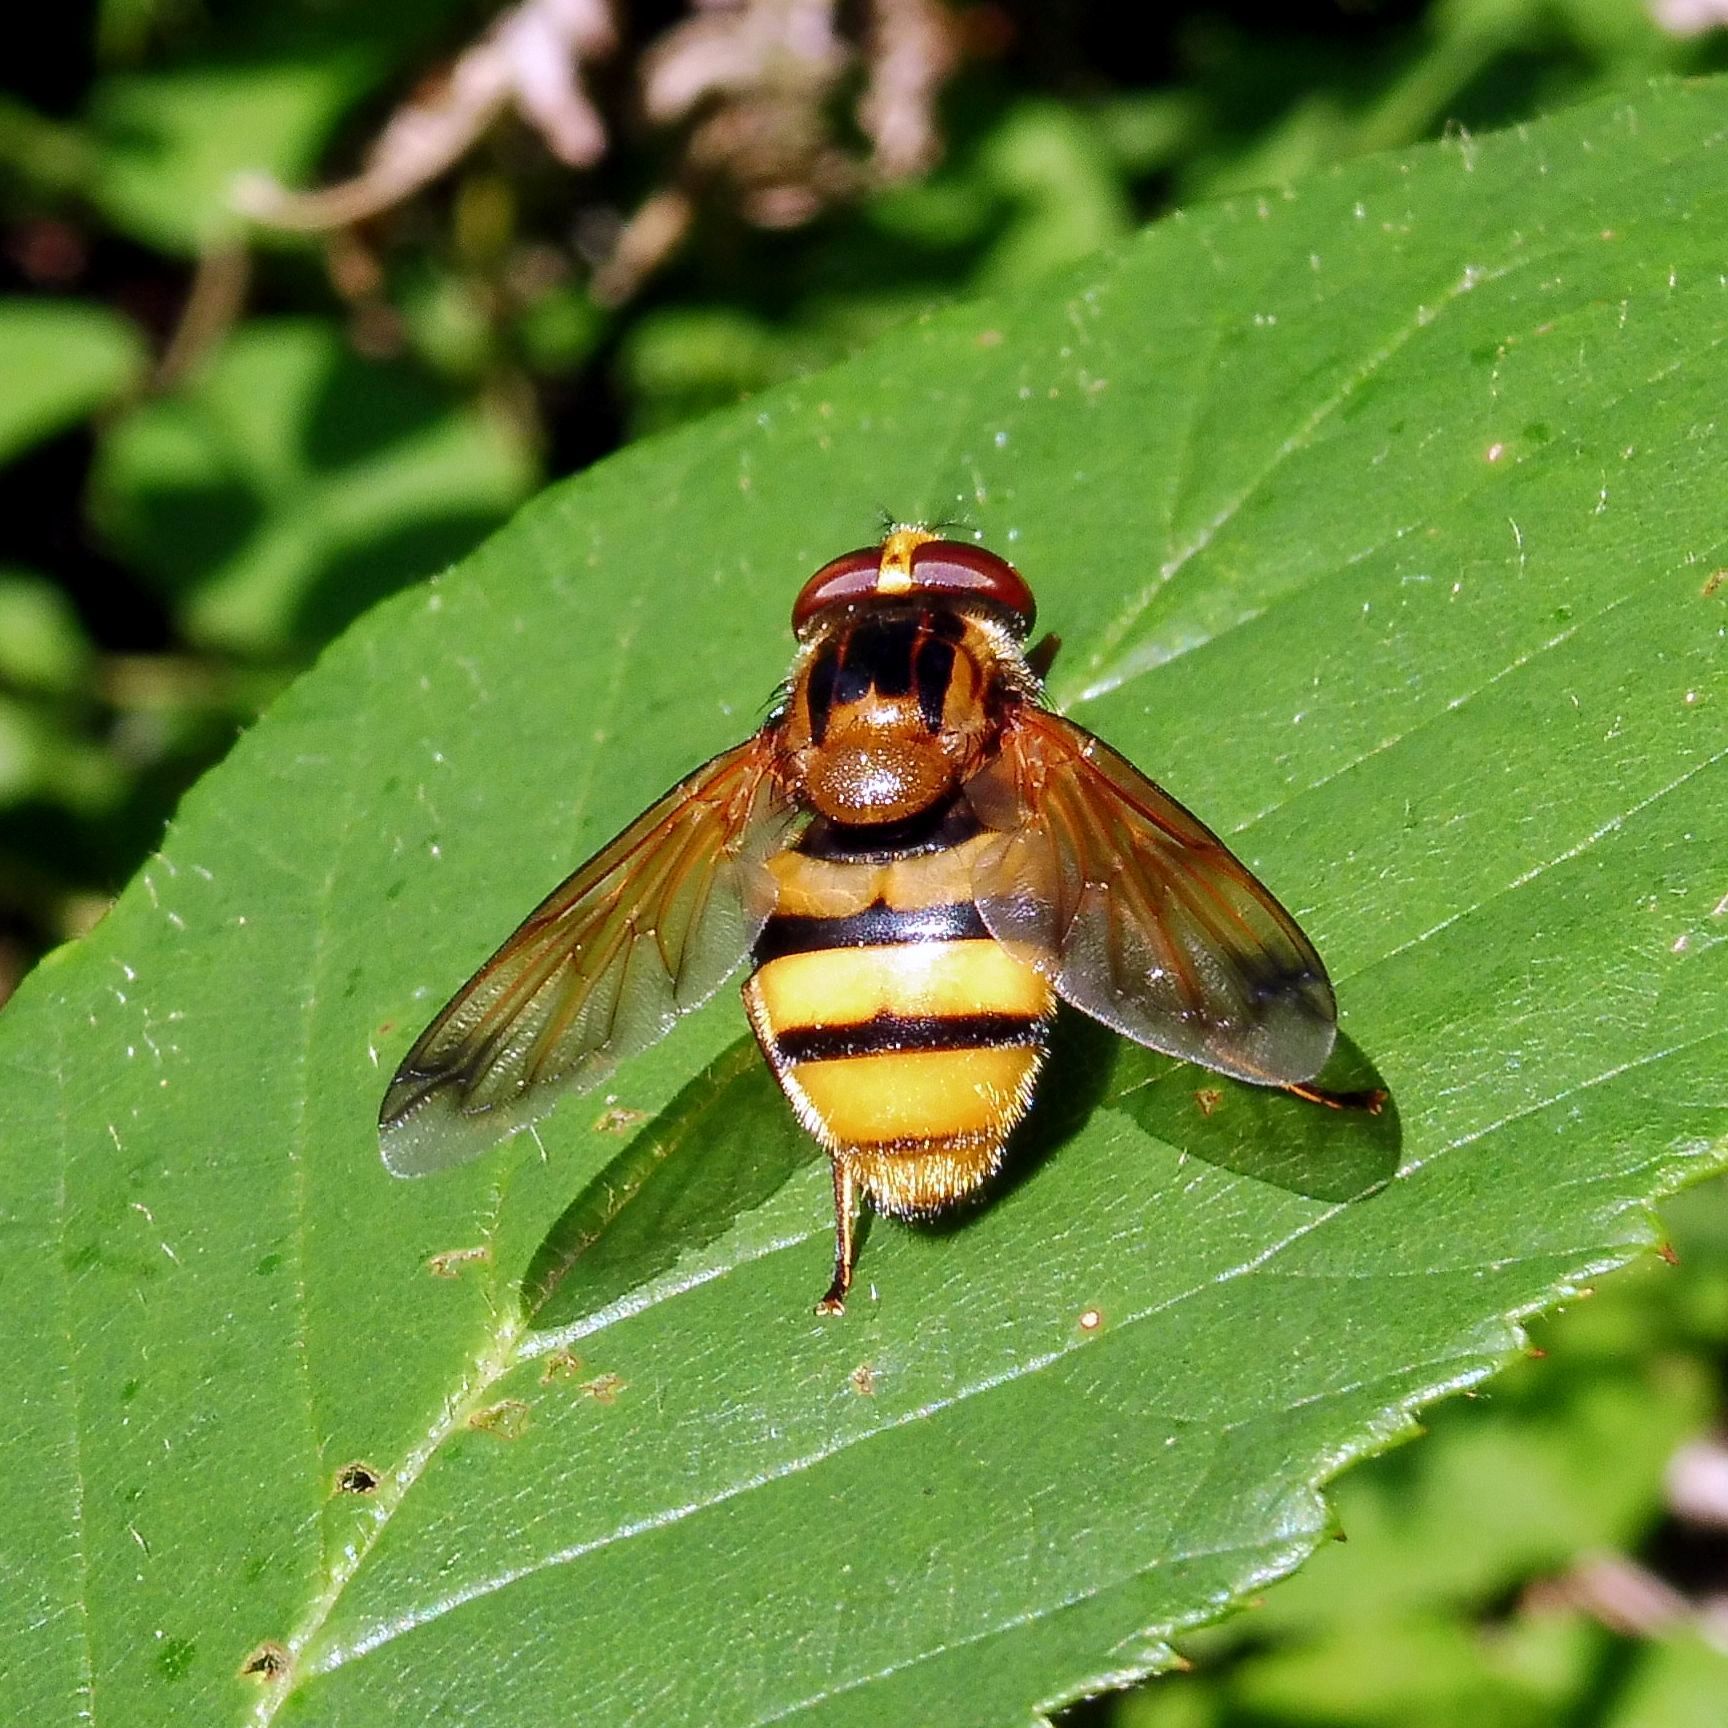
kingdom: Animalia
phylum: Arthropoda
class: Insecta
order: Diptera
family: Syrphidae
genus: Volucella
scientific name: Volucella inanis
